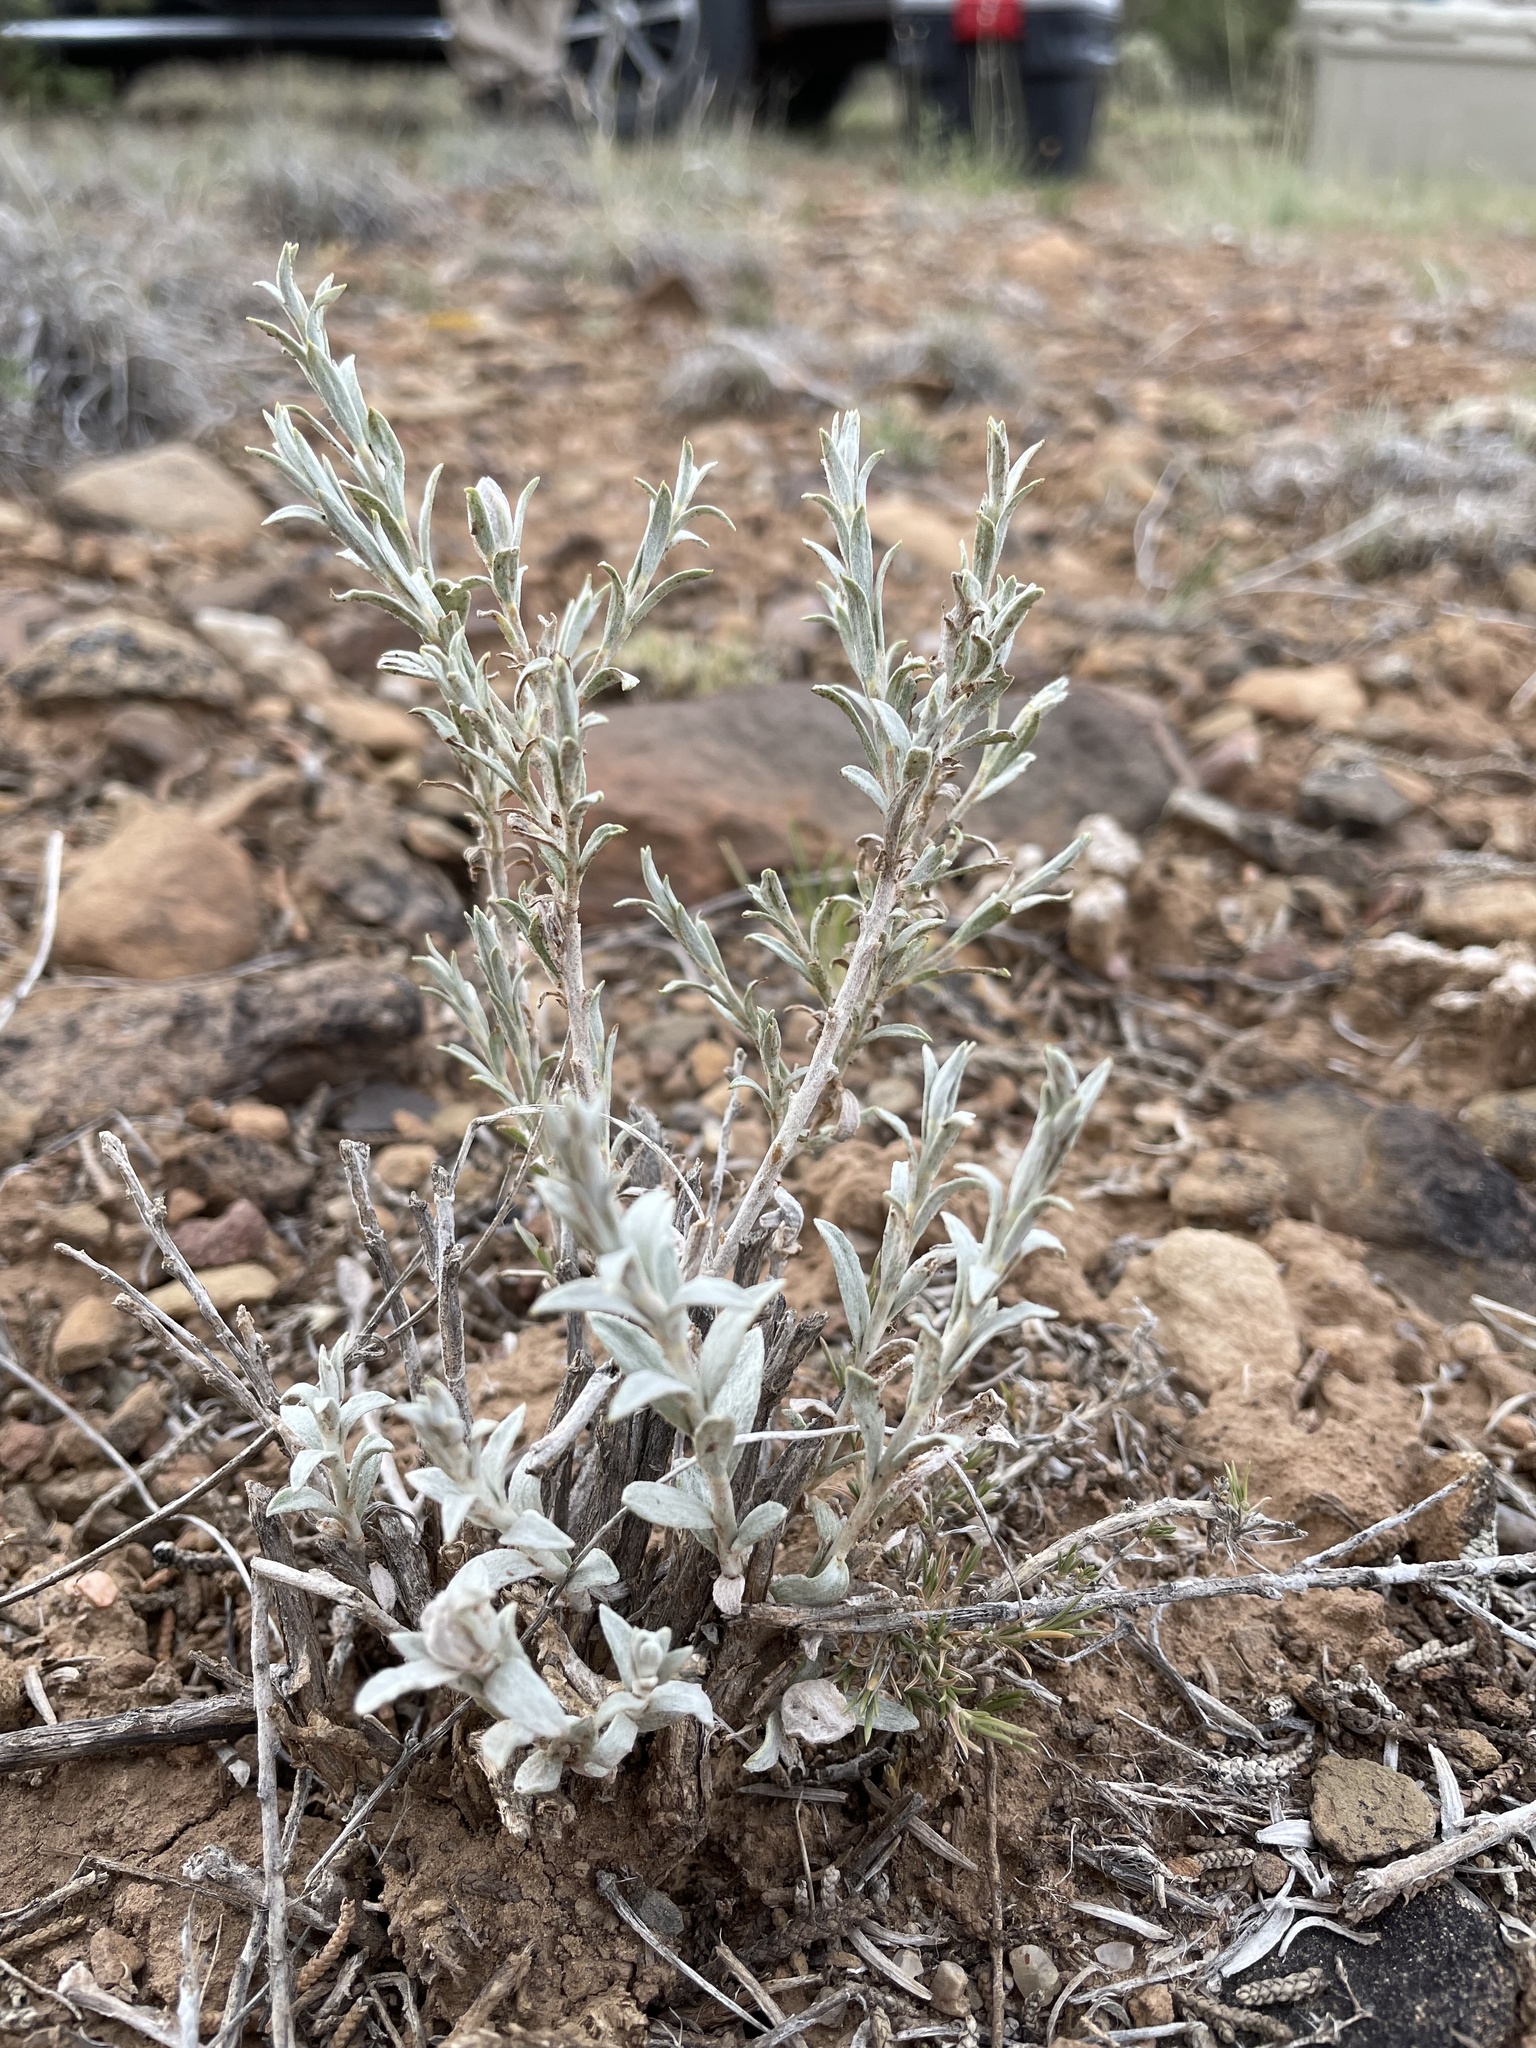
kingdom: Plantae
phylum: Tracheophyta
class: Magnoliopsida
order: Asterales
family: Asteraceae
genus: Tetradymia
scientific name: Tetradymia canescens
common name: Spineless horsebrush
